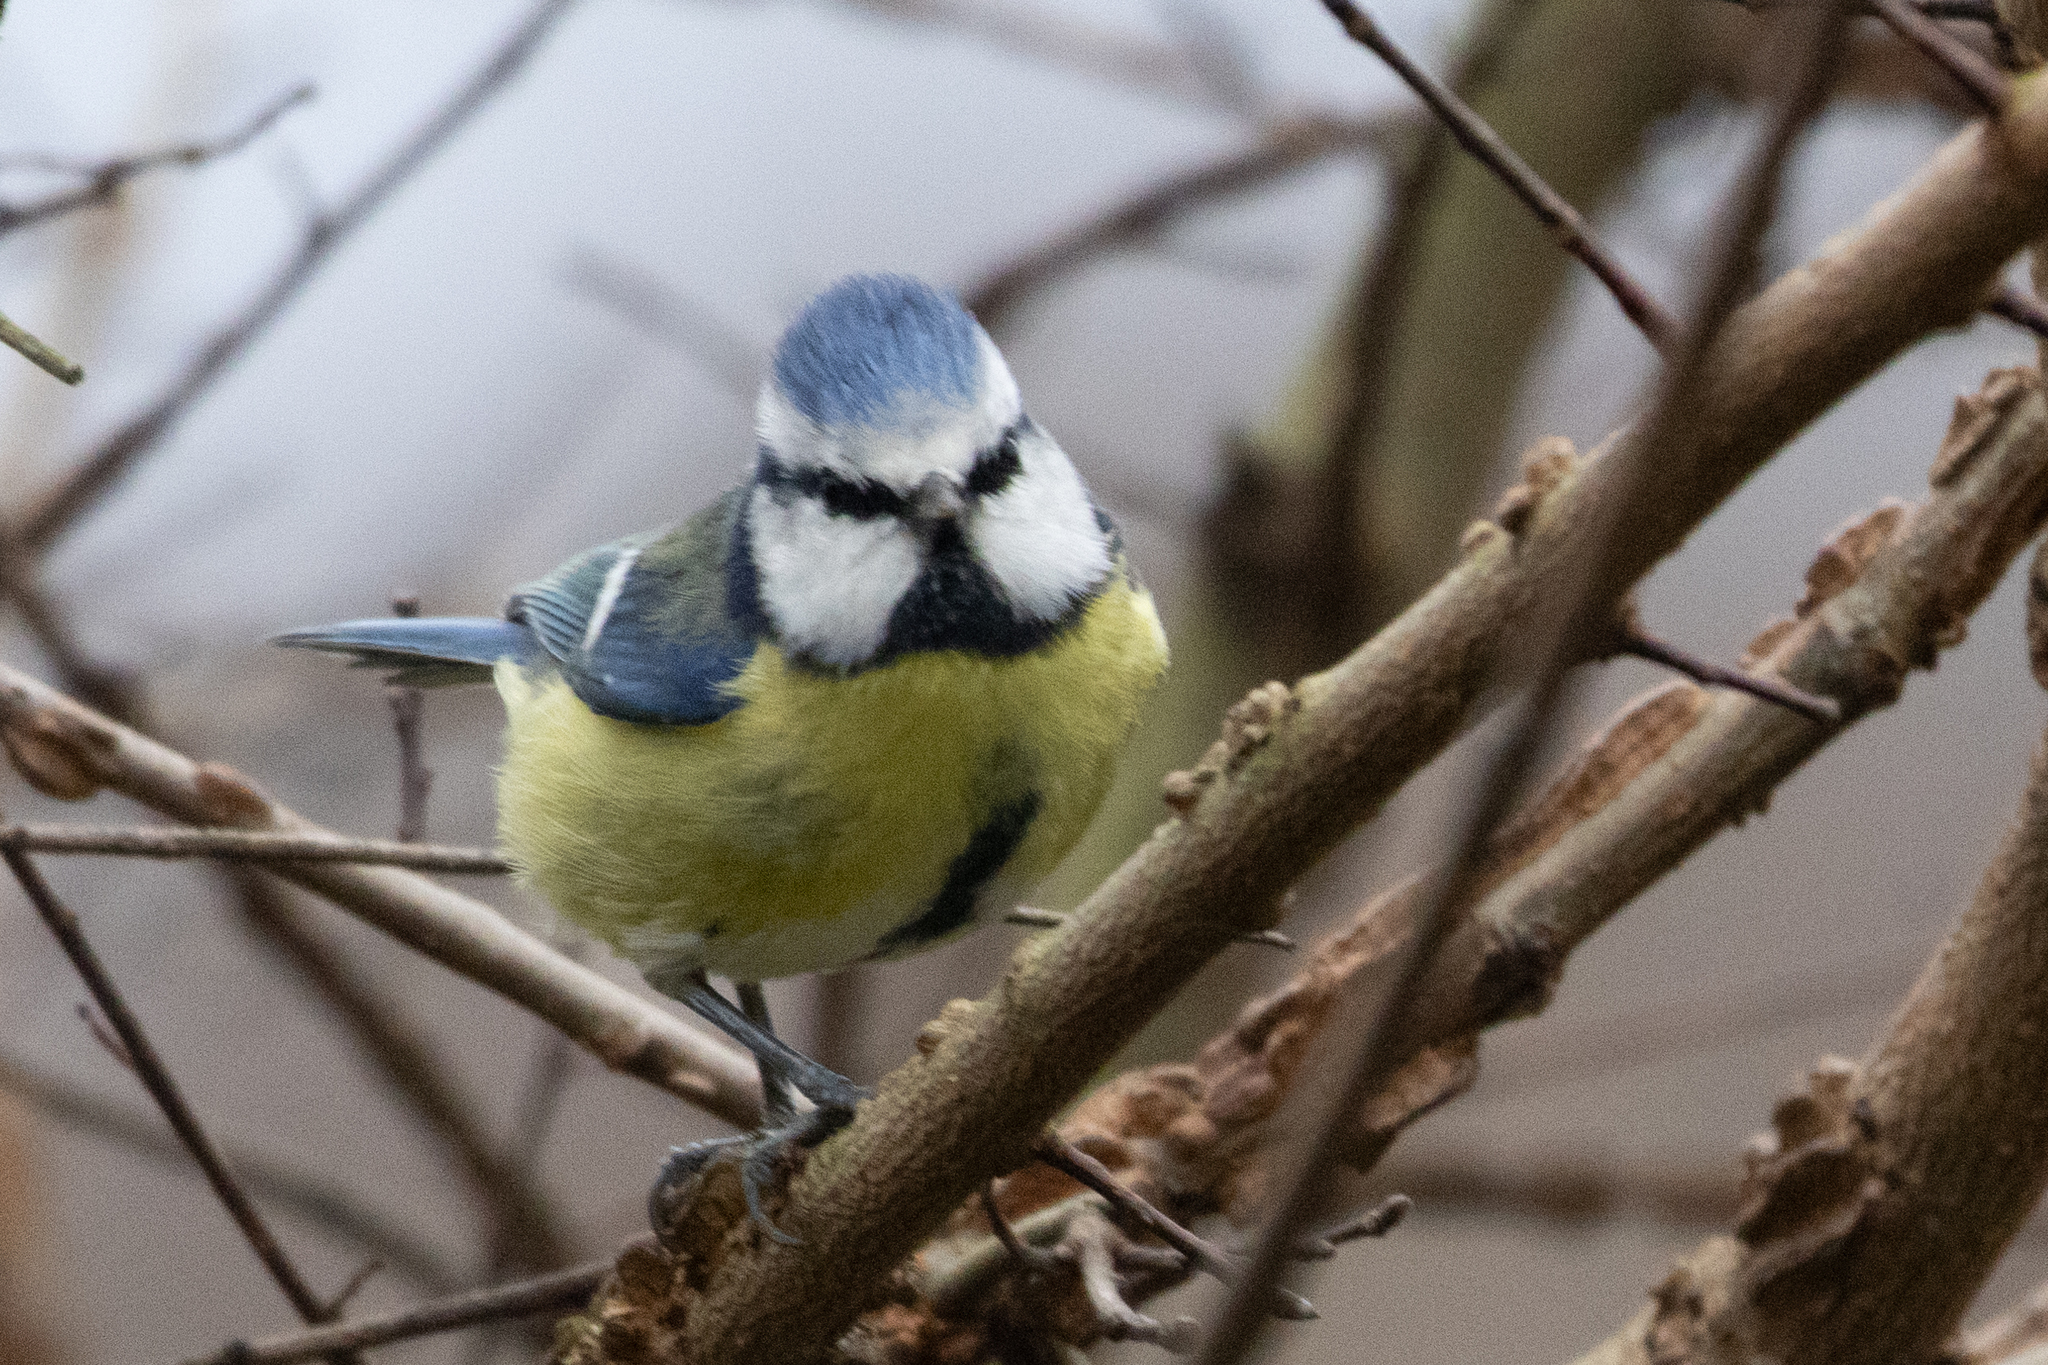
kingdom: Animalia
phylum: Chordata
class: Aves
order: Passeriformes
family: Paridae
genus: Cyanistes
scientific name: Cyanistes caeruleus
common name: Eurasian blue tit
